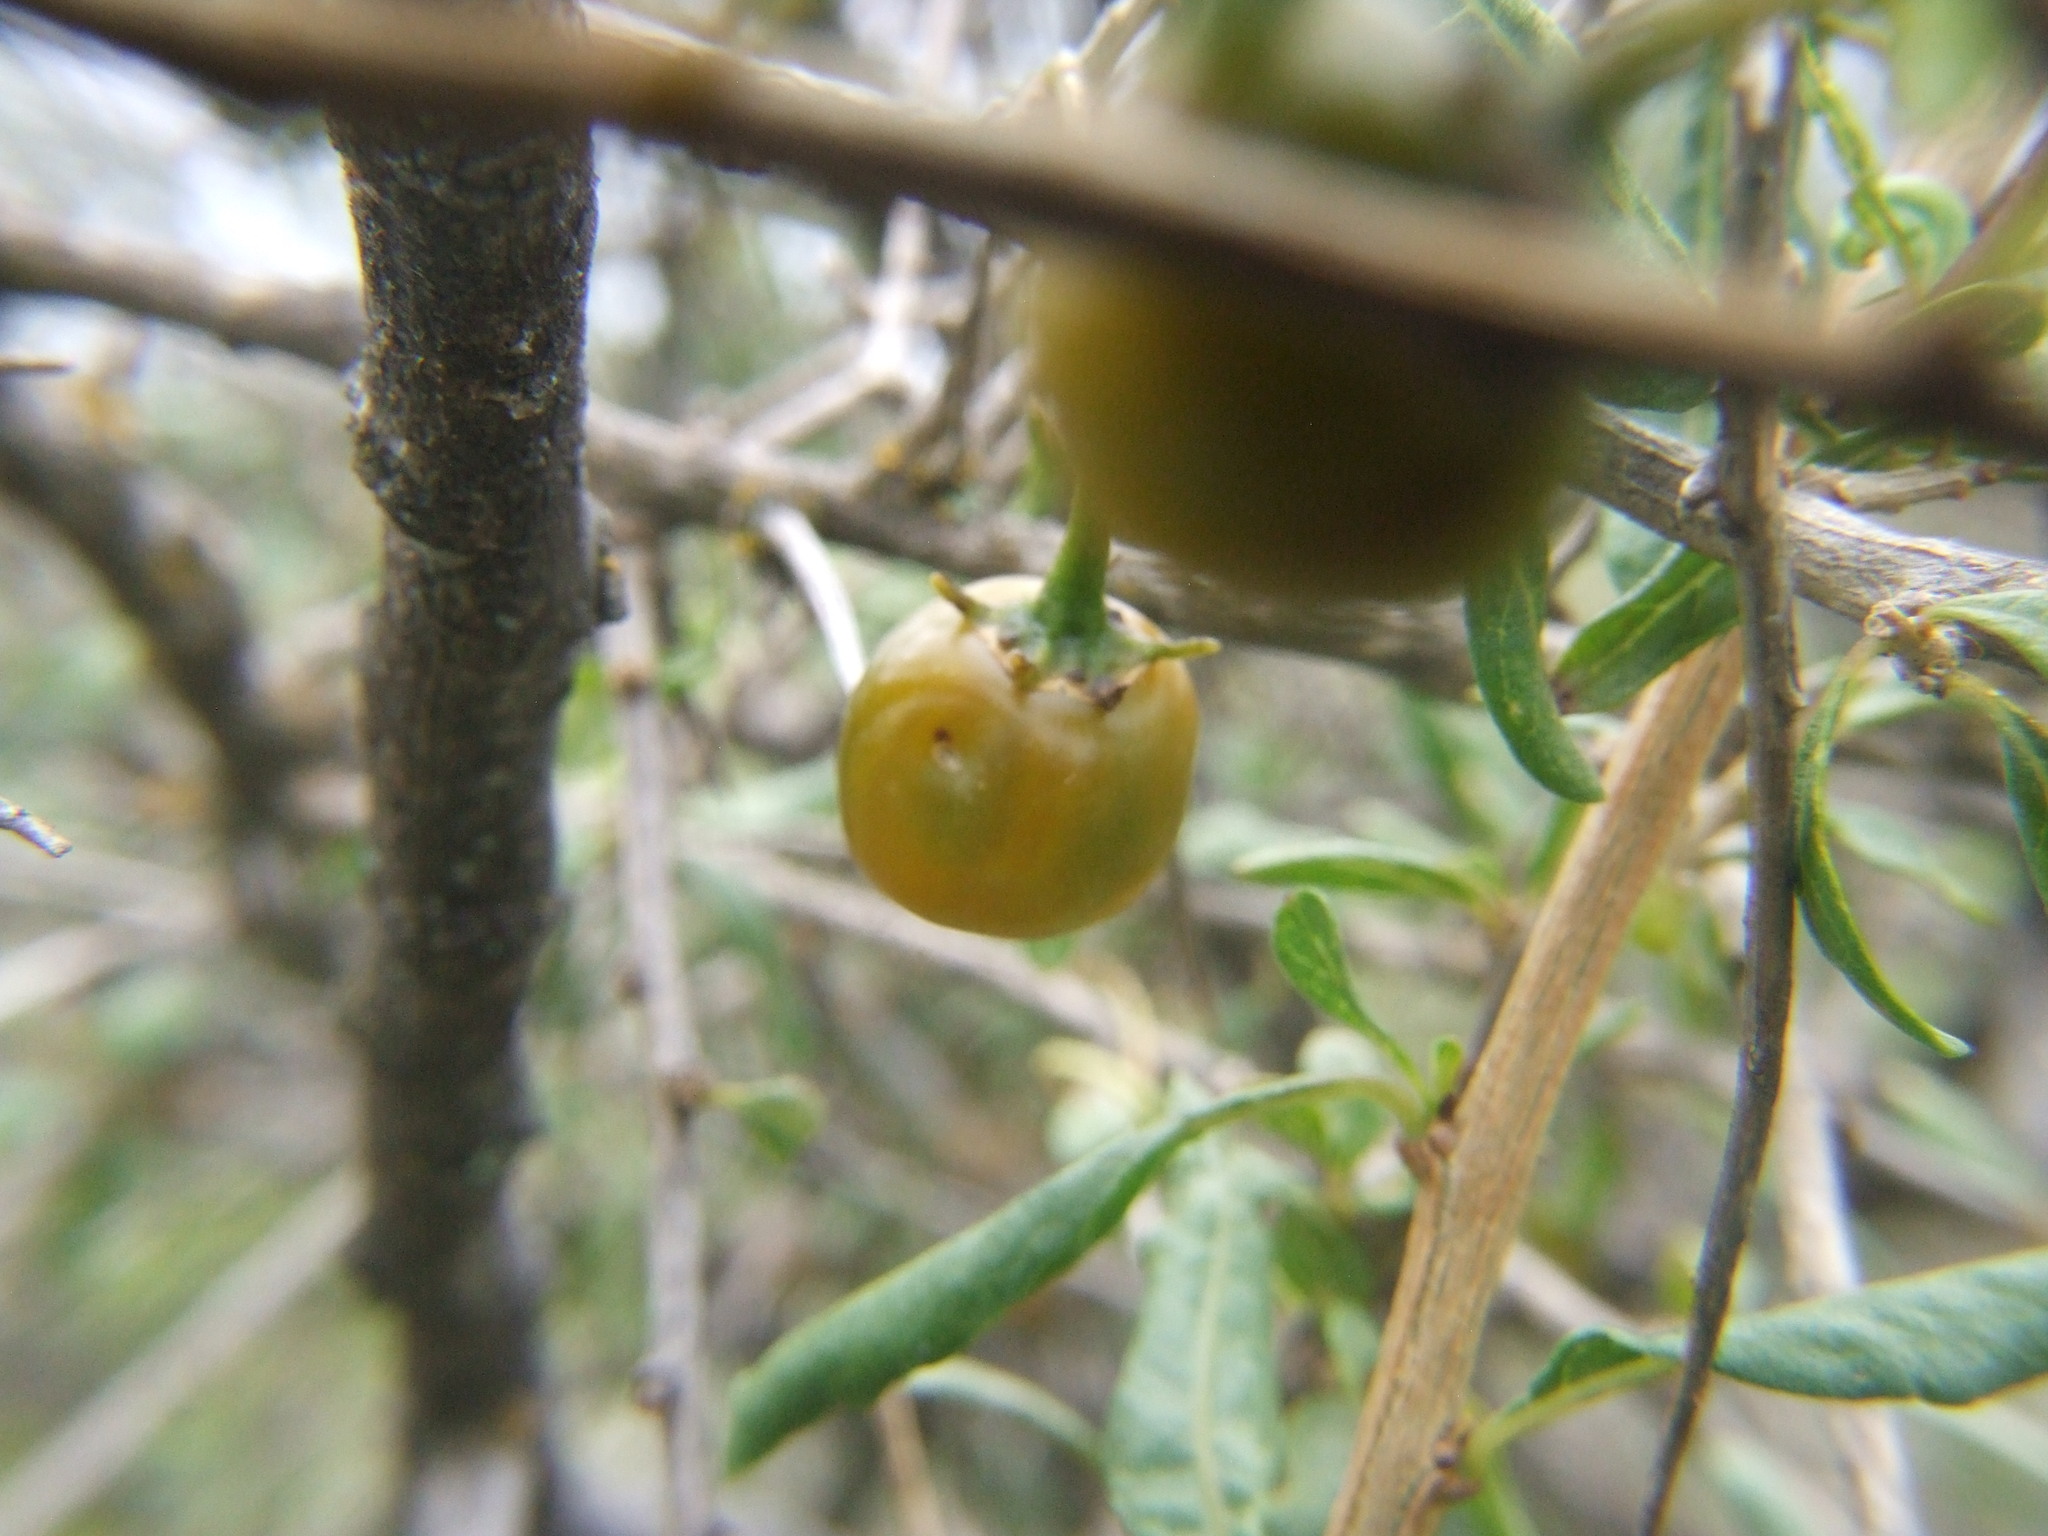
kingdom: Plantae
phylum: Tracheophyta
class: Magnoliopsida
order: Solanales
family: Solanaceae
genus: Lycianthes
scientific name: Lycianthes lycioides
